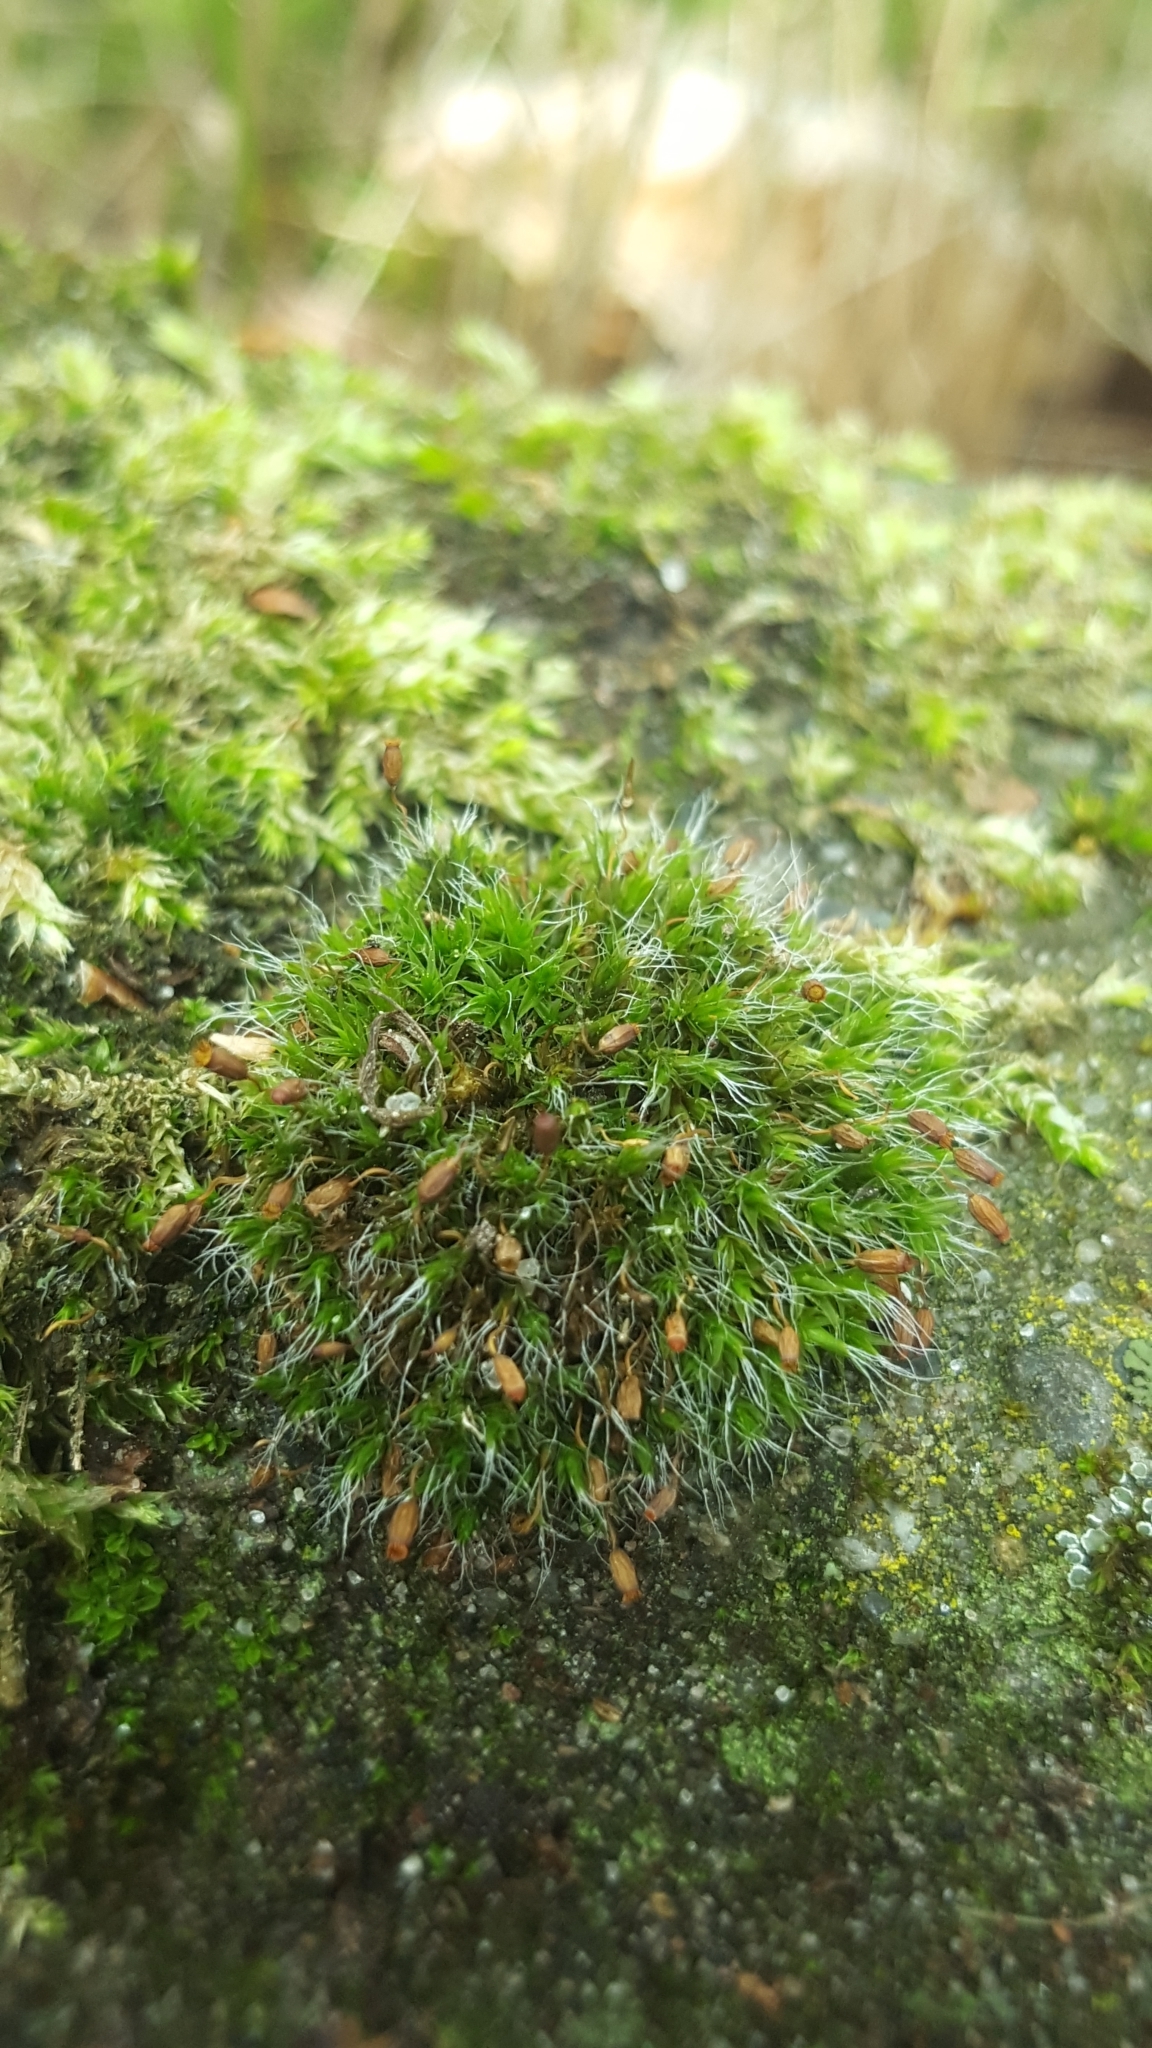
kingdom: Plantae
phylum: Bryophyta
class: Bryopsida
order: Grimmiales
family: Grimmiaceae
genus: Grimmia
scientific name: Grimmia pulvinata
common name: Grey-cushioned grimmia
